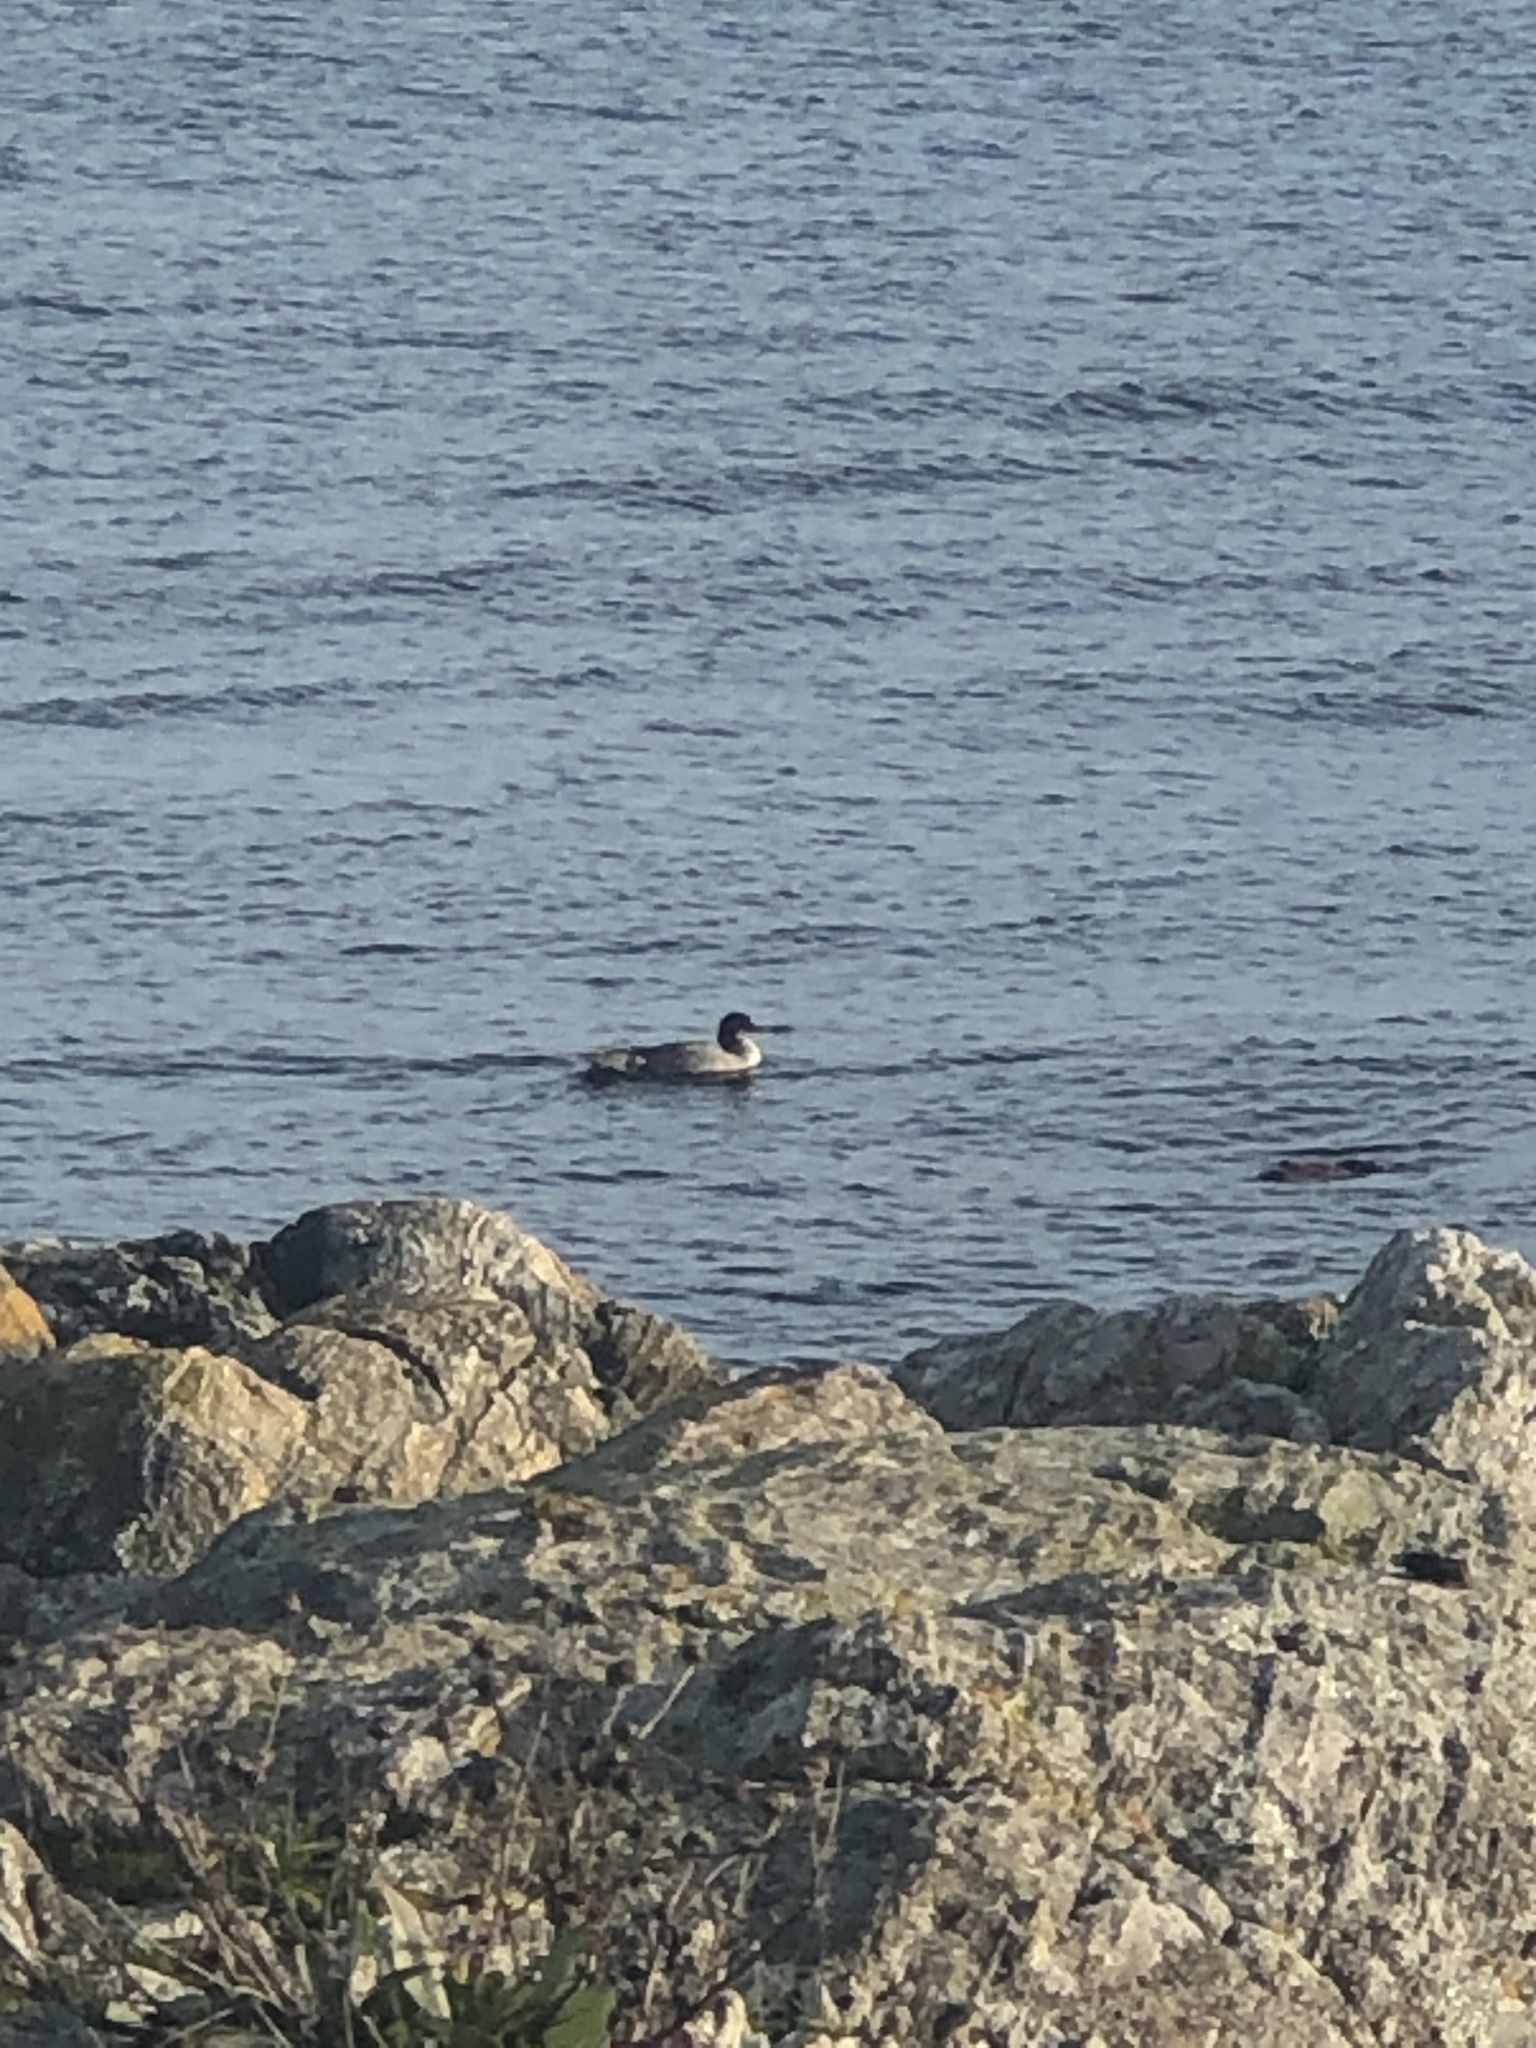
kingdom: Animalia
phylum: Chordata
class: Aves
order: Anseriformes
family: Anatidae
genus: Mergus
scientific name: Mergus merganser
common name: Common merganser
